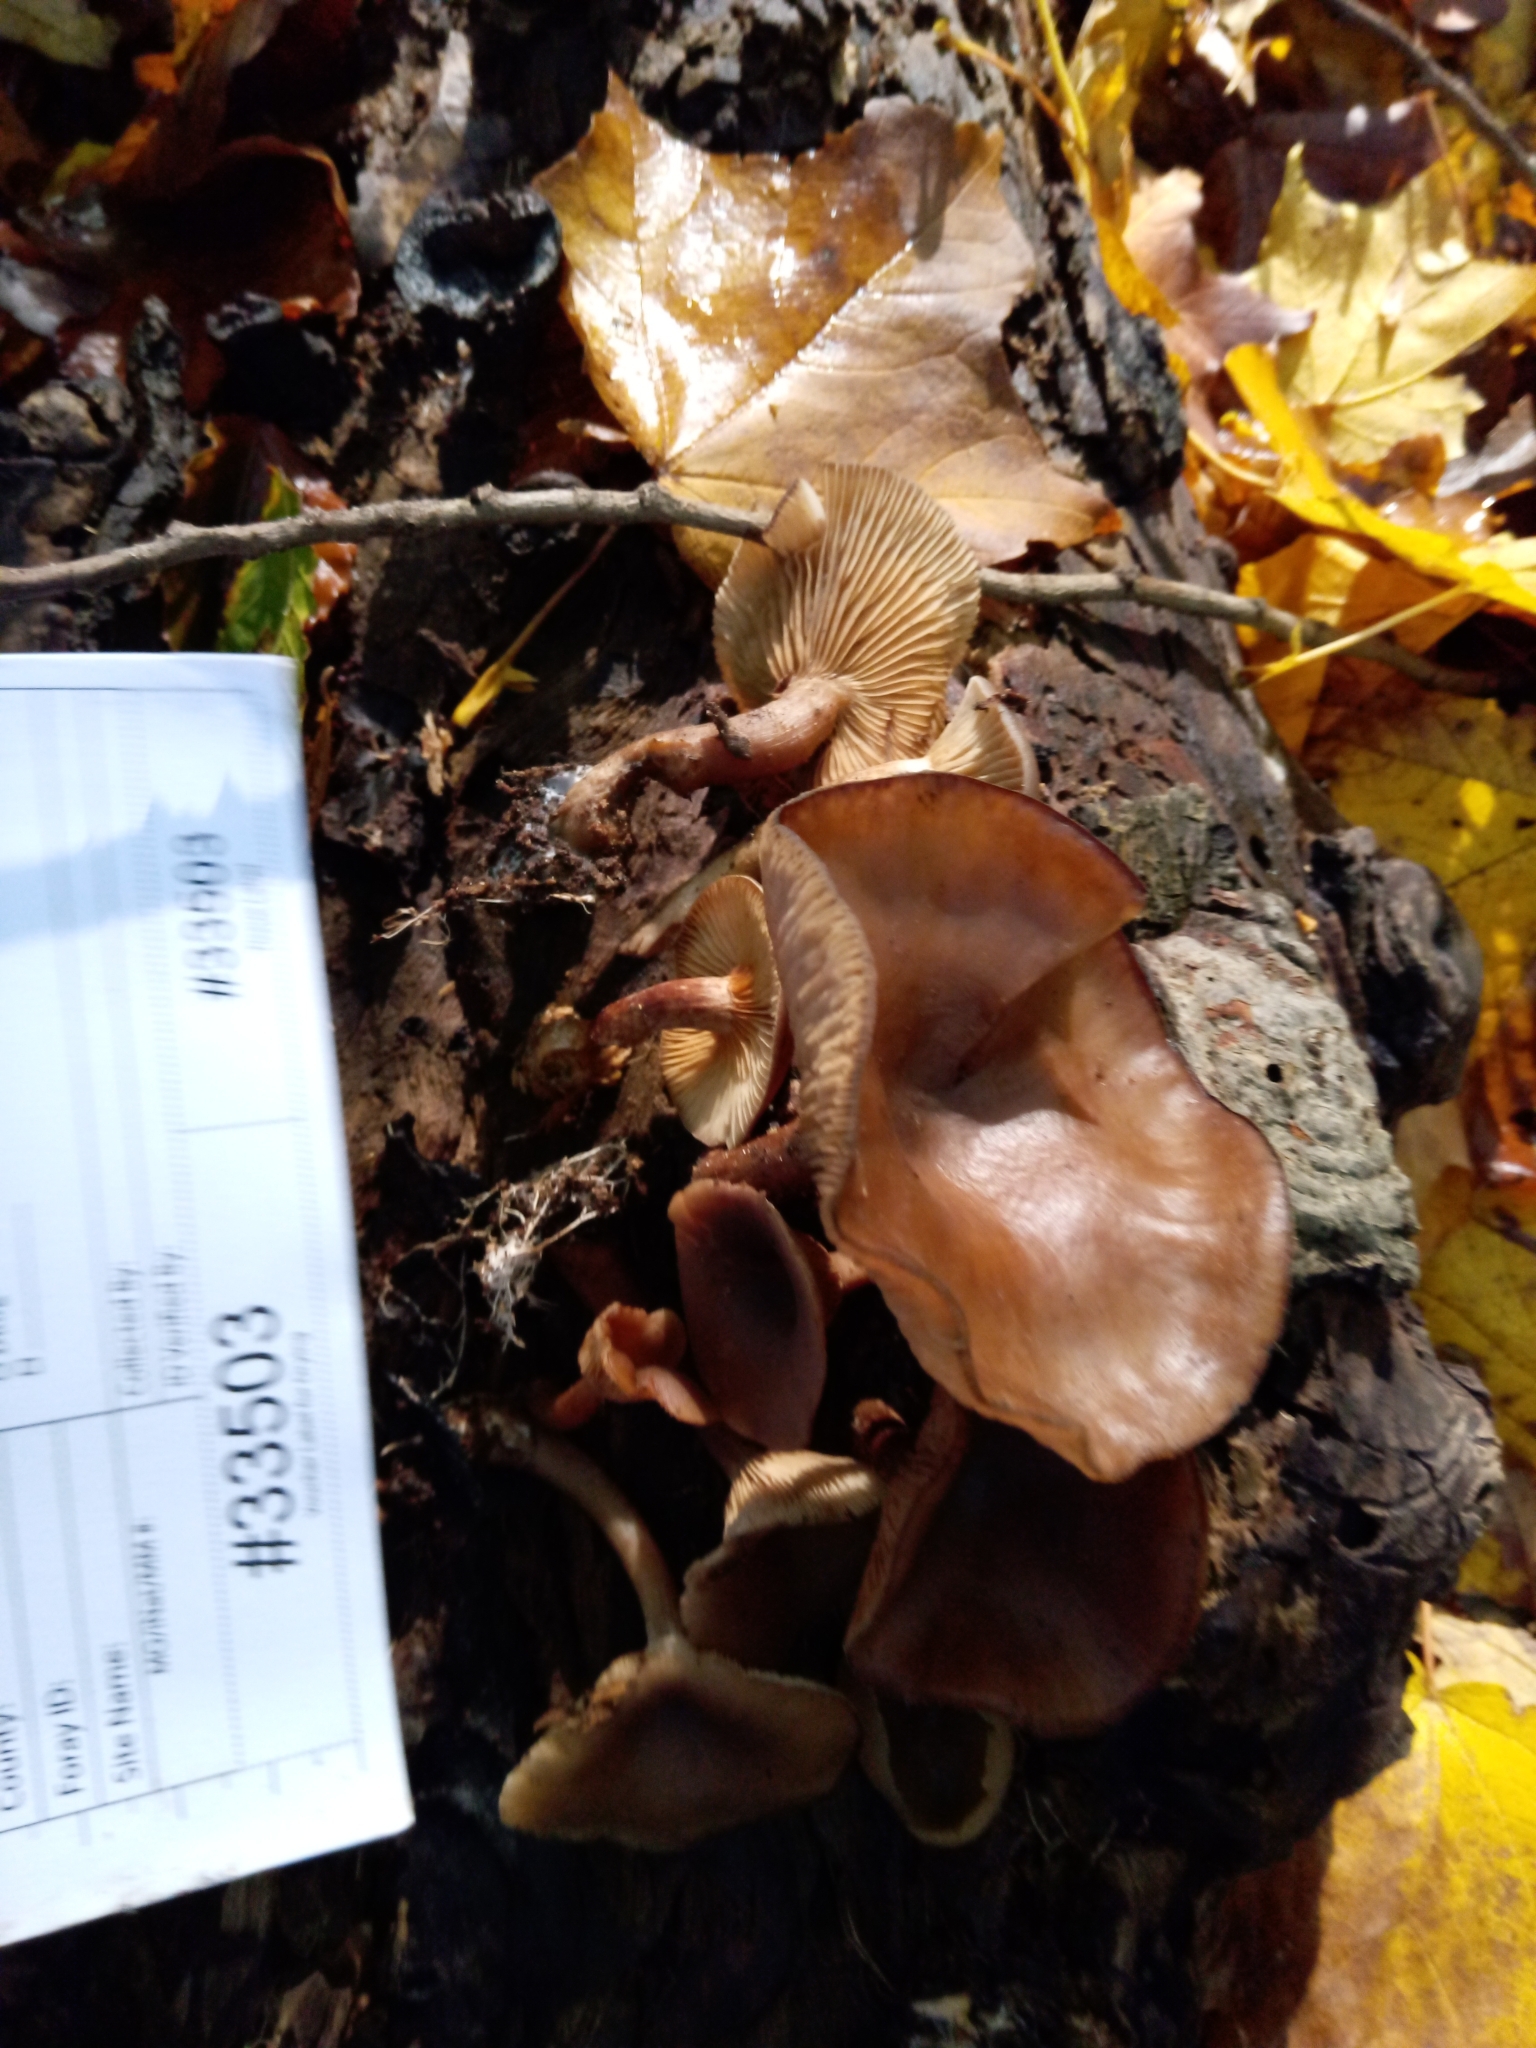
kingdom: Fungi
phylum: Basidiomycota
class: Agaricomycetes
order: Agaricales
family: Pseudoclitocybaceae
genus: Pseudoclitocybe
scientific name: Pseudoclitocybe cyathiformis
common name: Goblet
